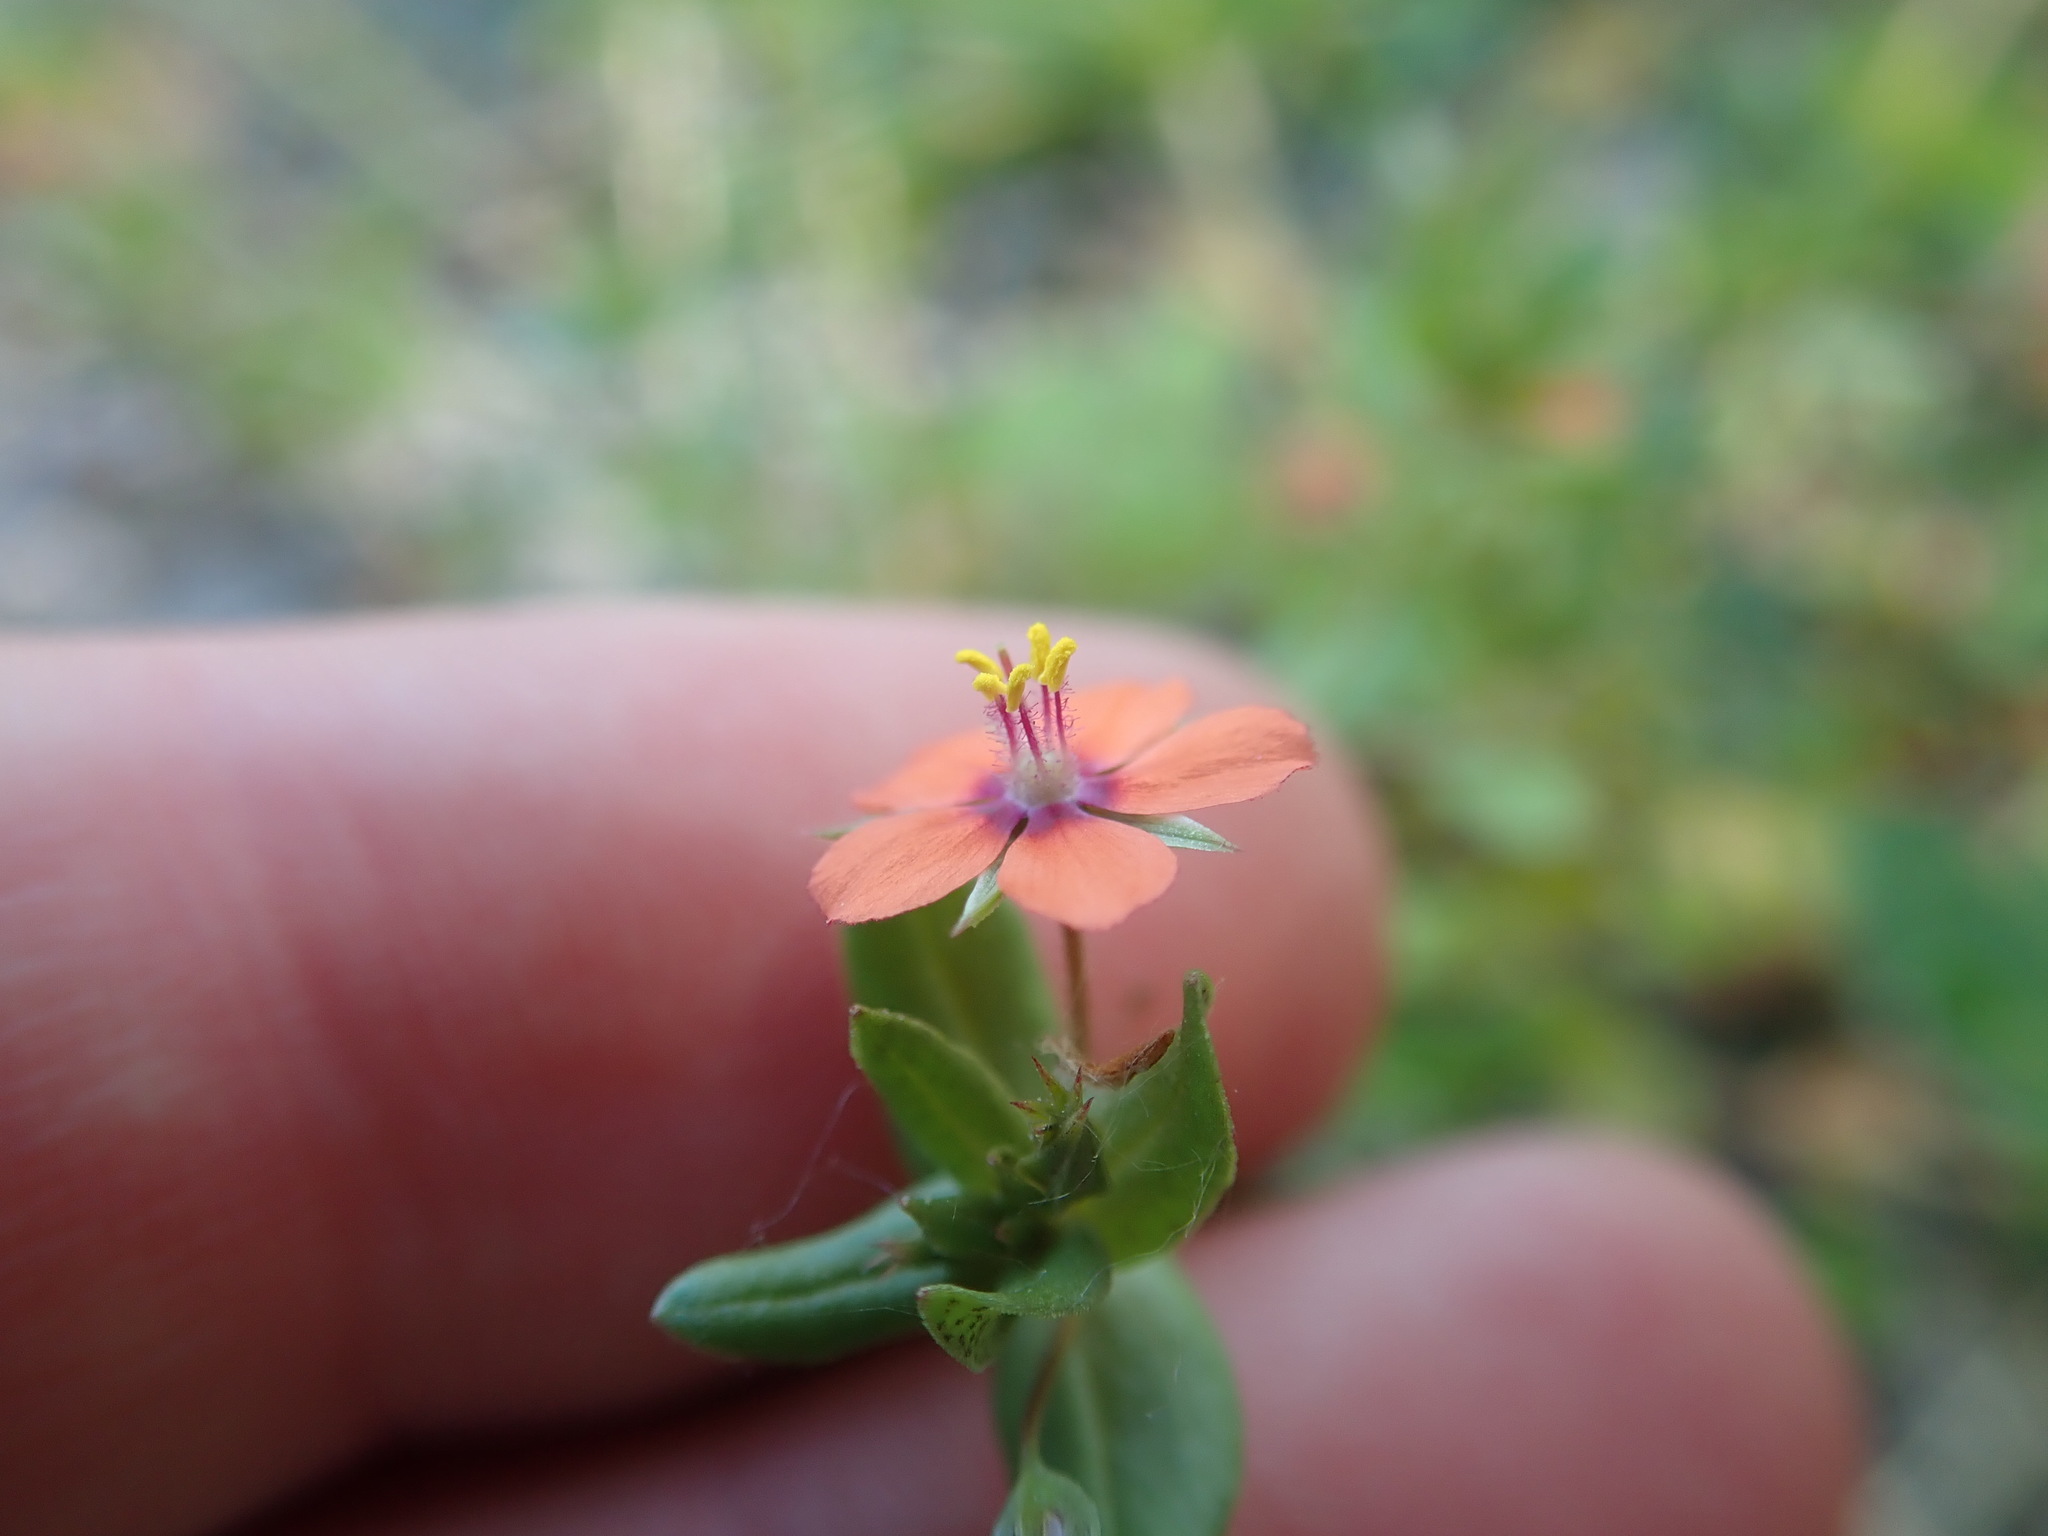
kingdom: Plantae
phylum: Tracheophyta
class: Magnoliopsida
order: Ericales
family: Primulaceae
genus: Lysimachia
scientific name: Lysimachia arvensis
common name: Scarlet pimpernel
